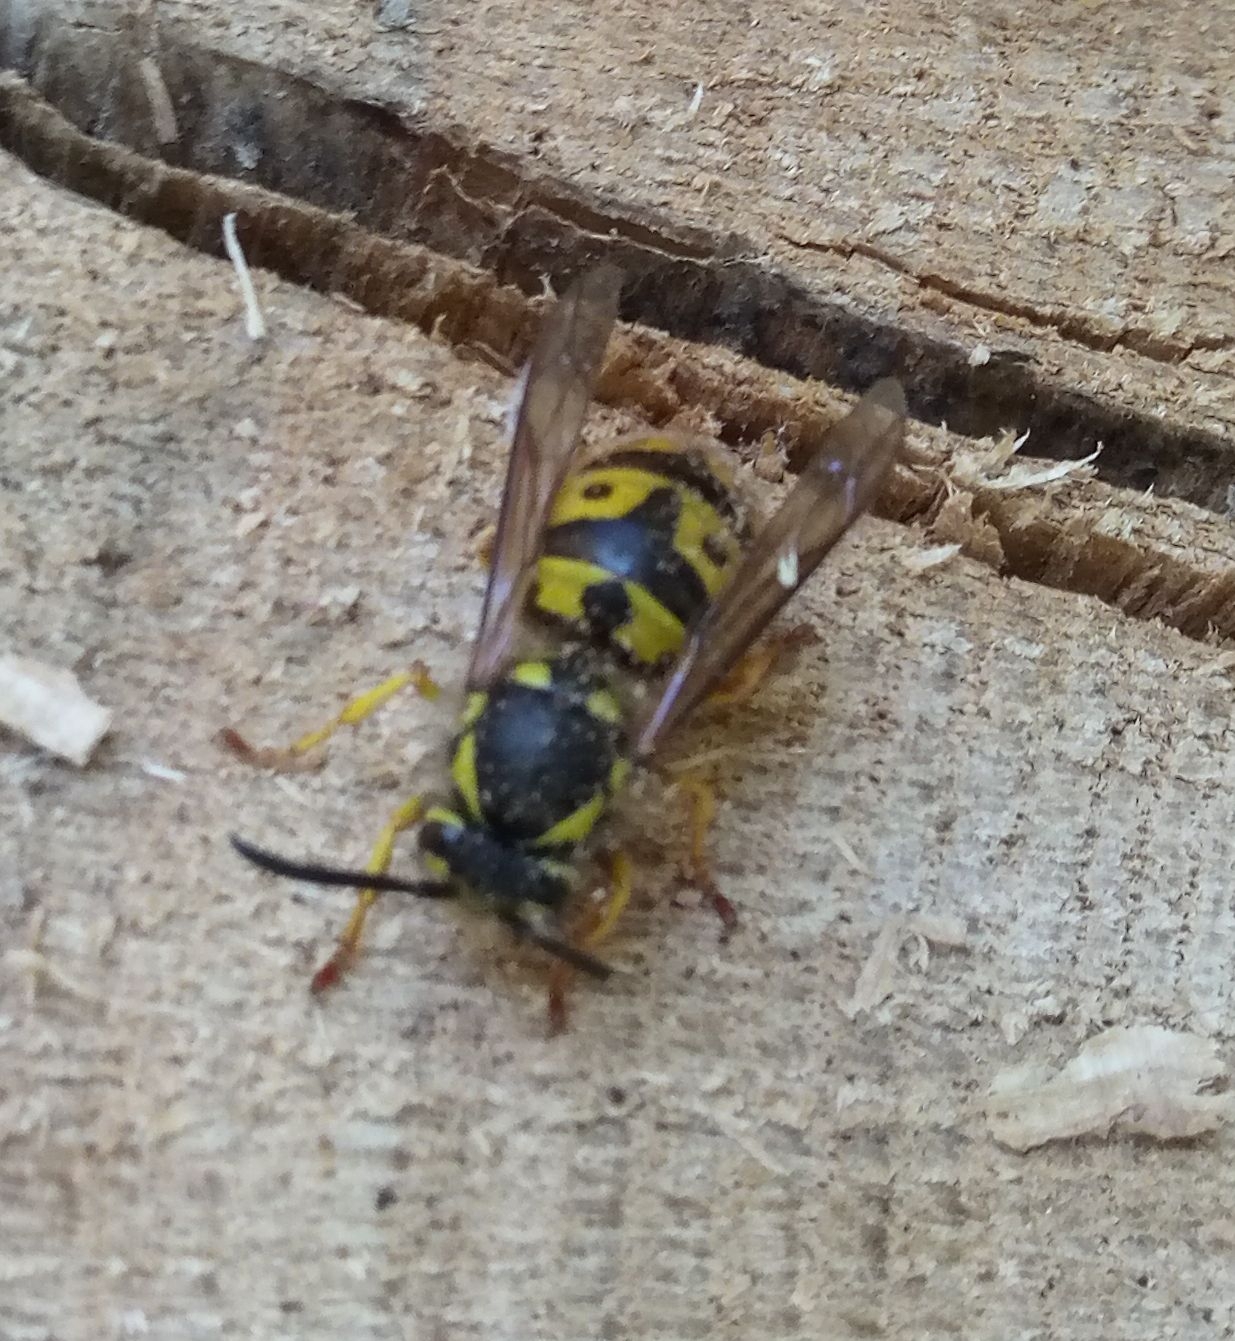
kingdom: Animalia
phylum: Arthropoda
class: Insecta
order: Hymenoptera
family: Vespidae
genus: Vespula
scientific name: Vespula germanica
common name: German wasp
